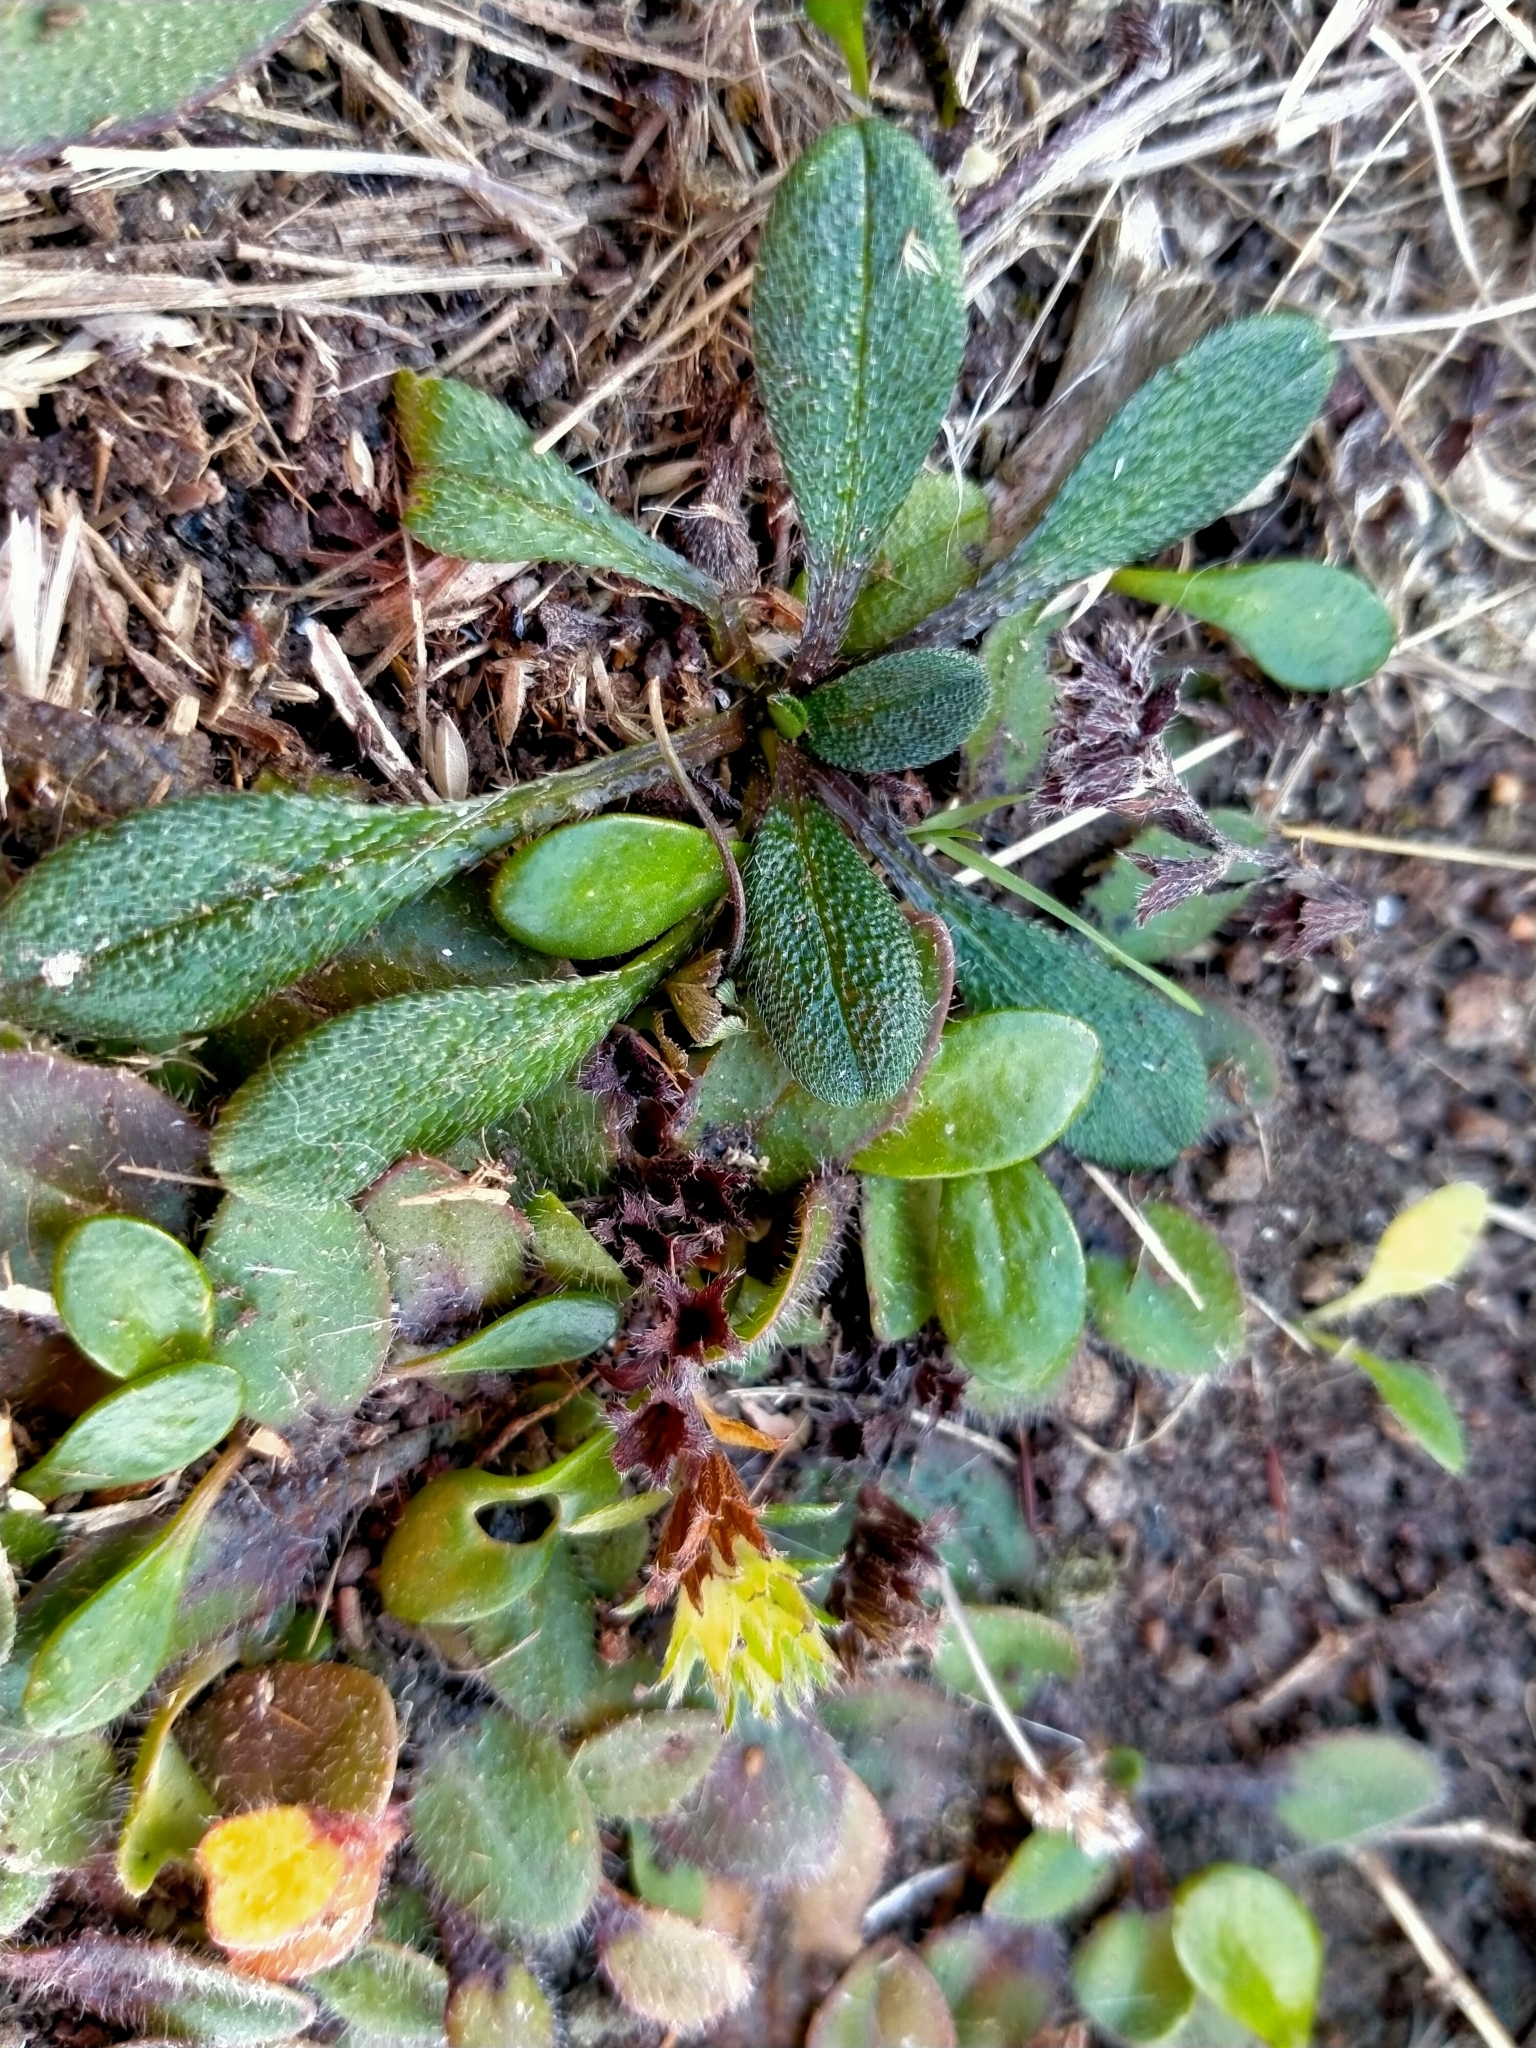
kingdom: Plantae
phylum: Tracheophyta
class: Magnoliopsida
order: Boraginales
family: Boraginaceae
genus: Myosotis
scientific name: Myosotis antarctica
